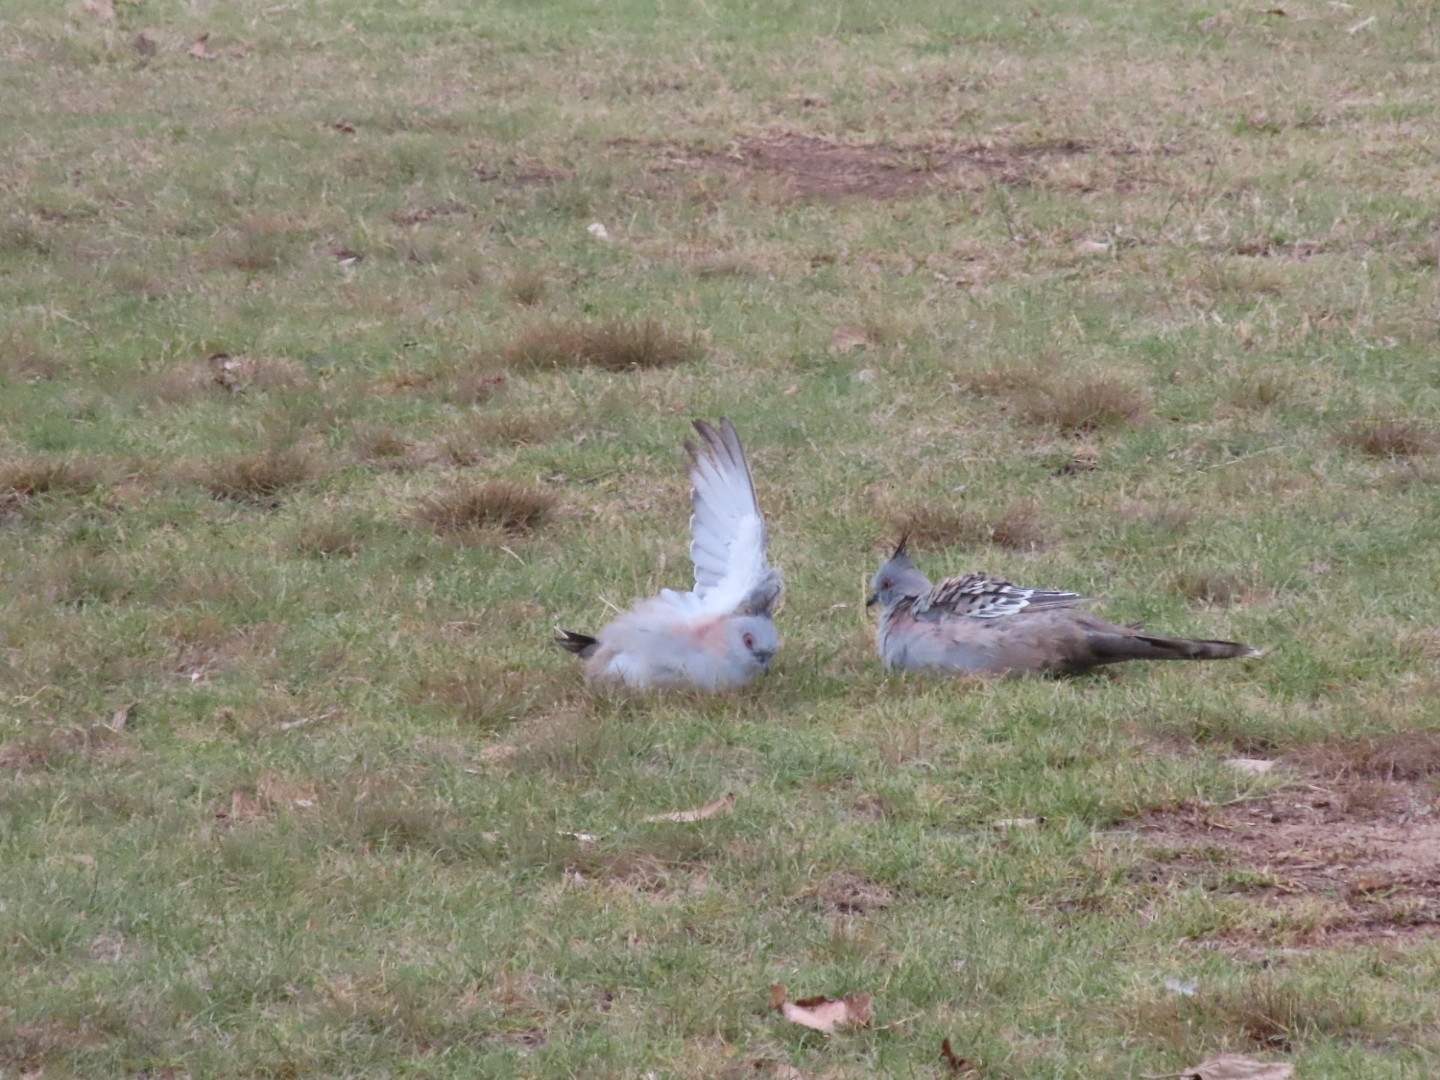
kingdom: Animalia
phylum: Chordata
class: Aves
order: Columbiformes
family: Columbidae
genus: Ocyphaps
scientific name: Ocyphaps lophotes
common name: Crested pigeon
